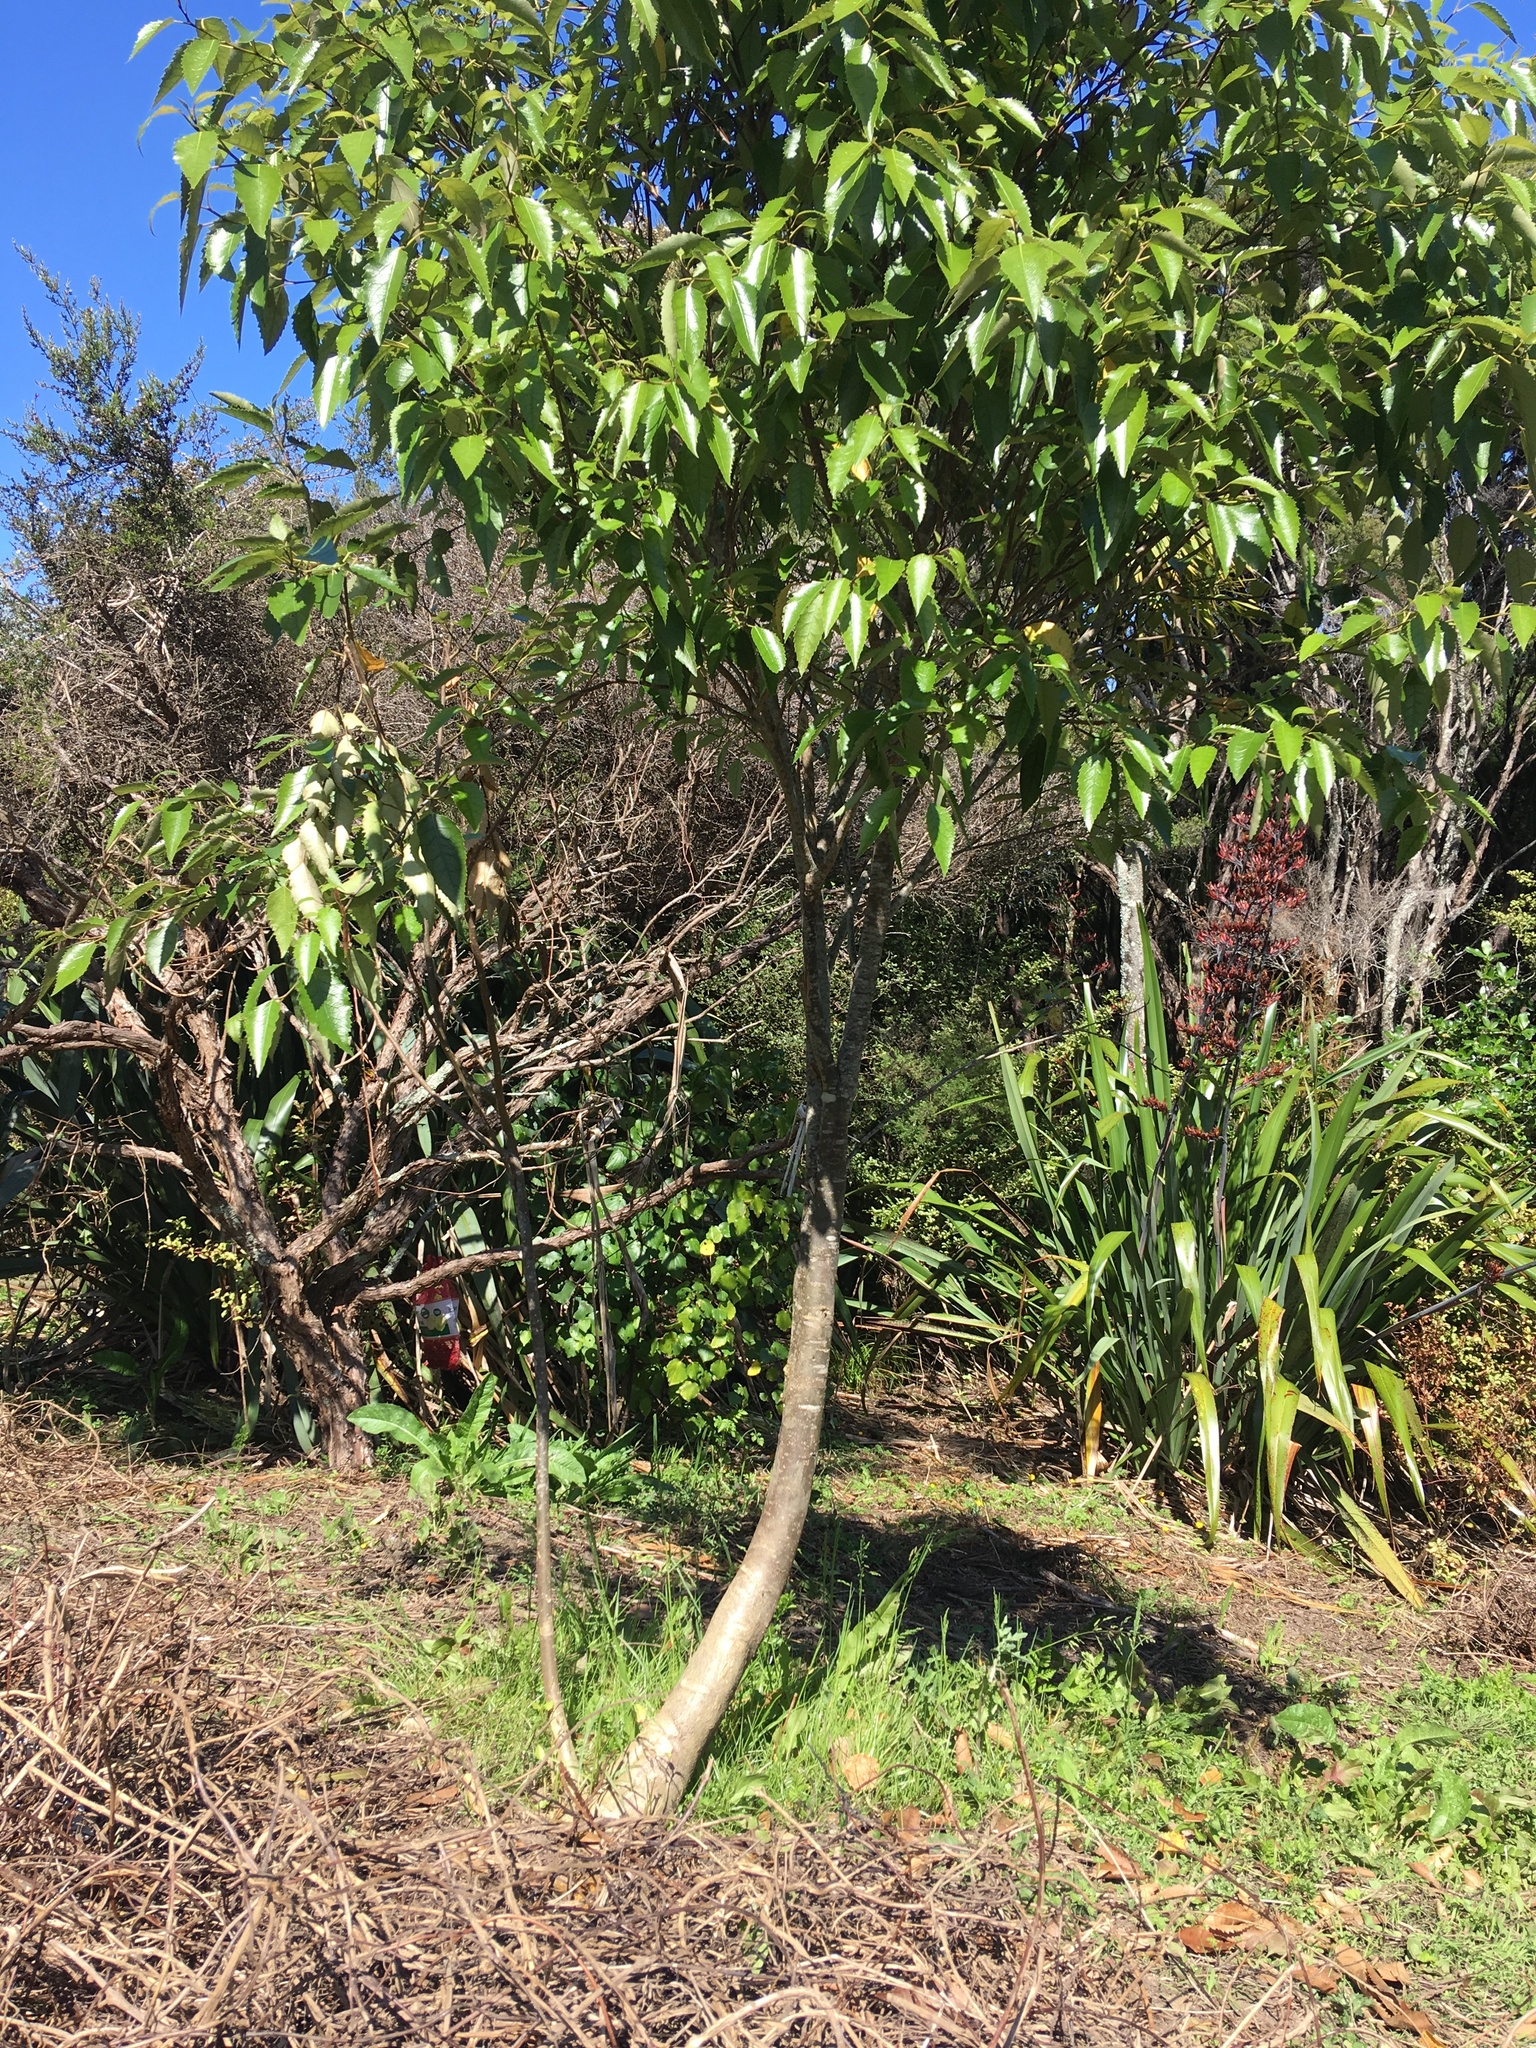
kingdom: Plantae
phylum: Tracheophyta
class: Magnoliopsida
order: Malvales
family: Malvaceae
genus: Hoheria
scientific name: Hoheria populnea
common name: Lacebark
